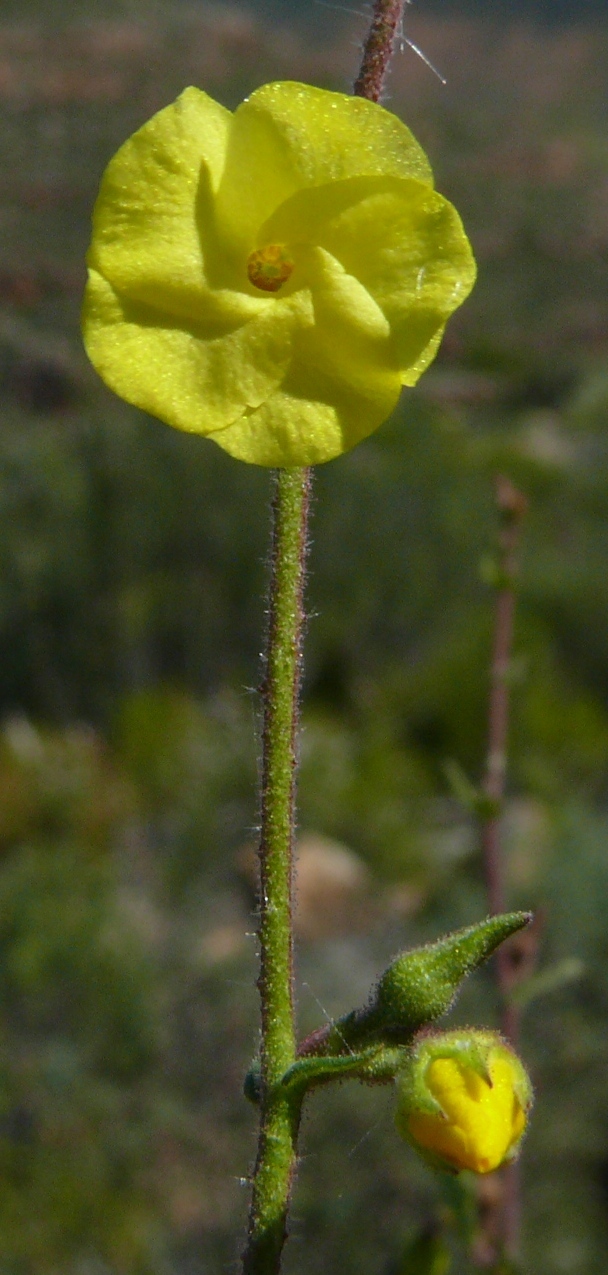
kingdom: Plantae
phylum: Tracheophyta
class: Magnoliopsida
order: Malvales
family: Malvaceae
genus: Hermannia
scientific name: Hermannia rigida
